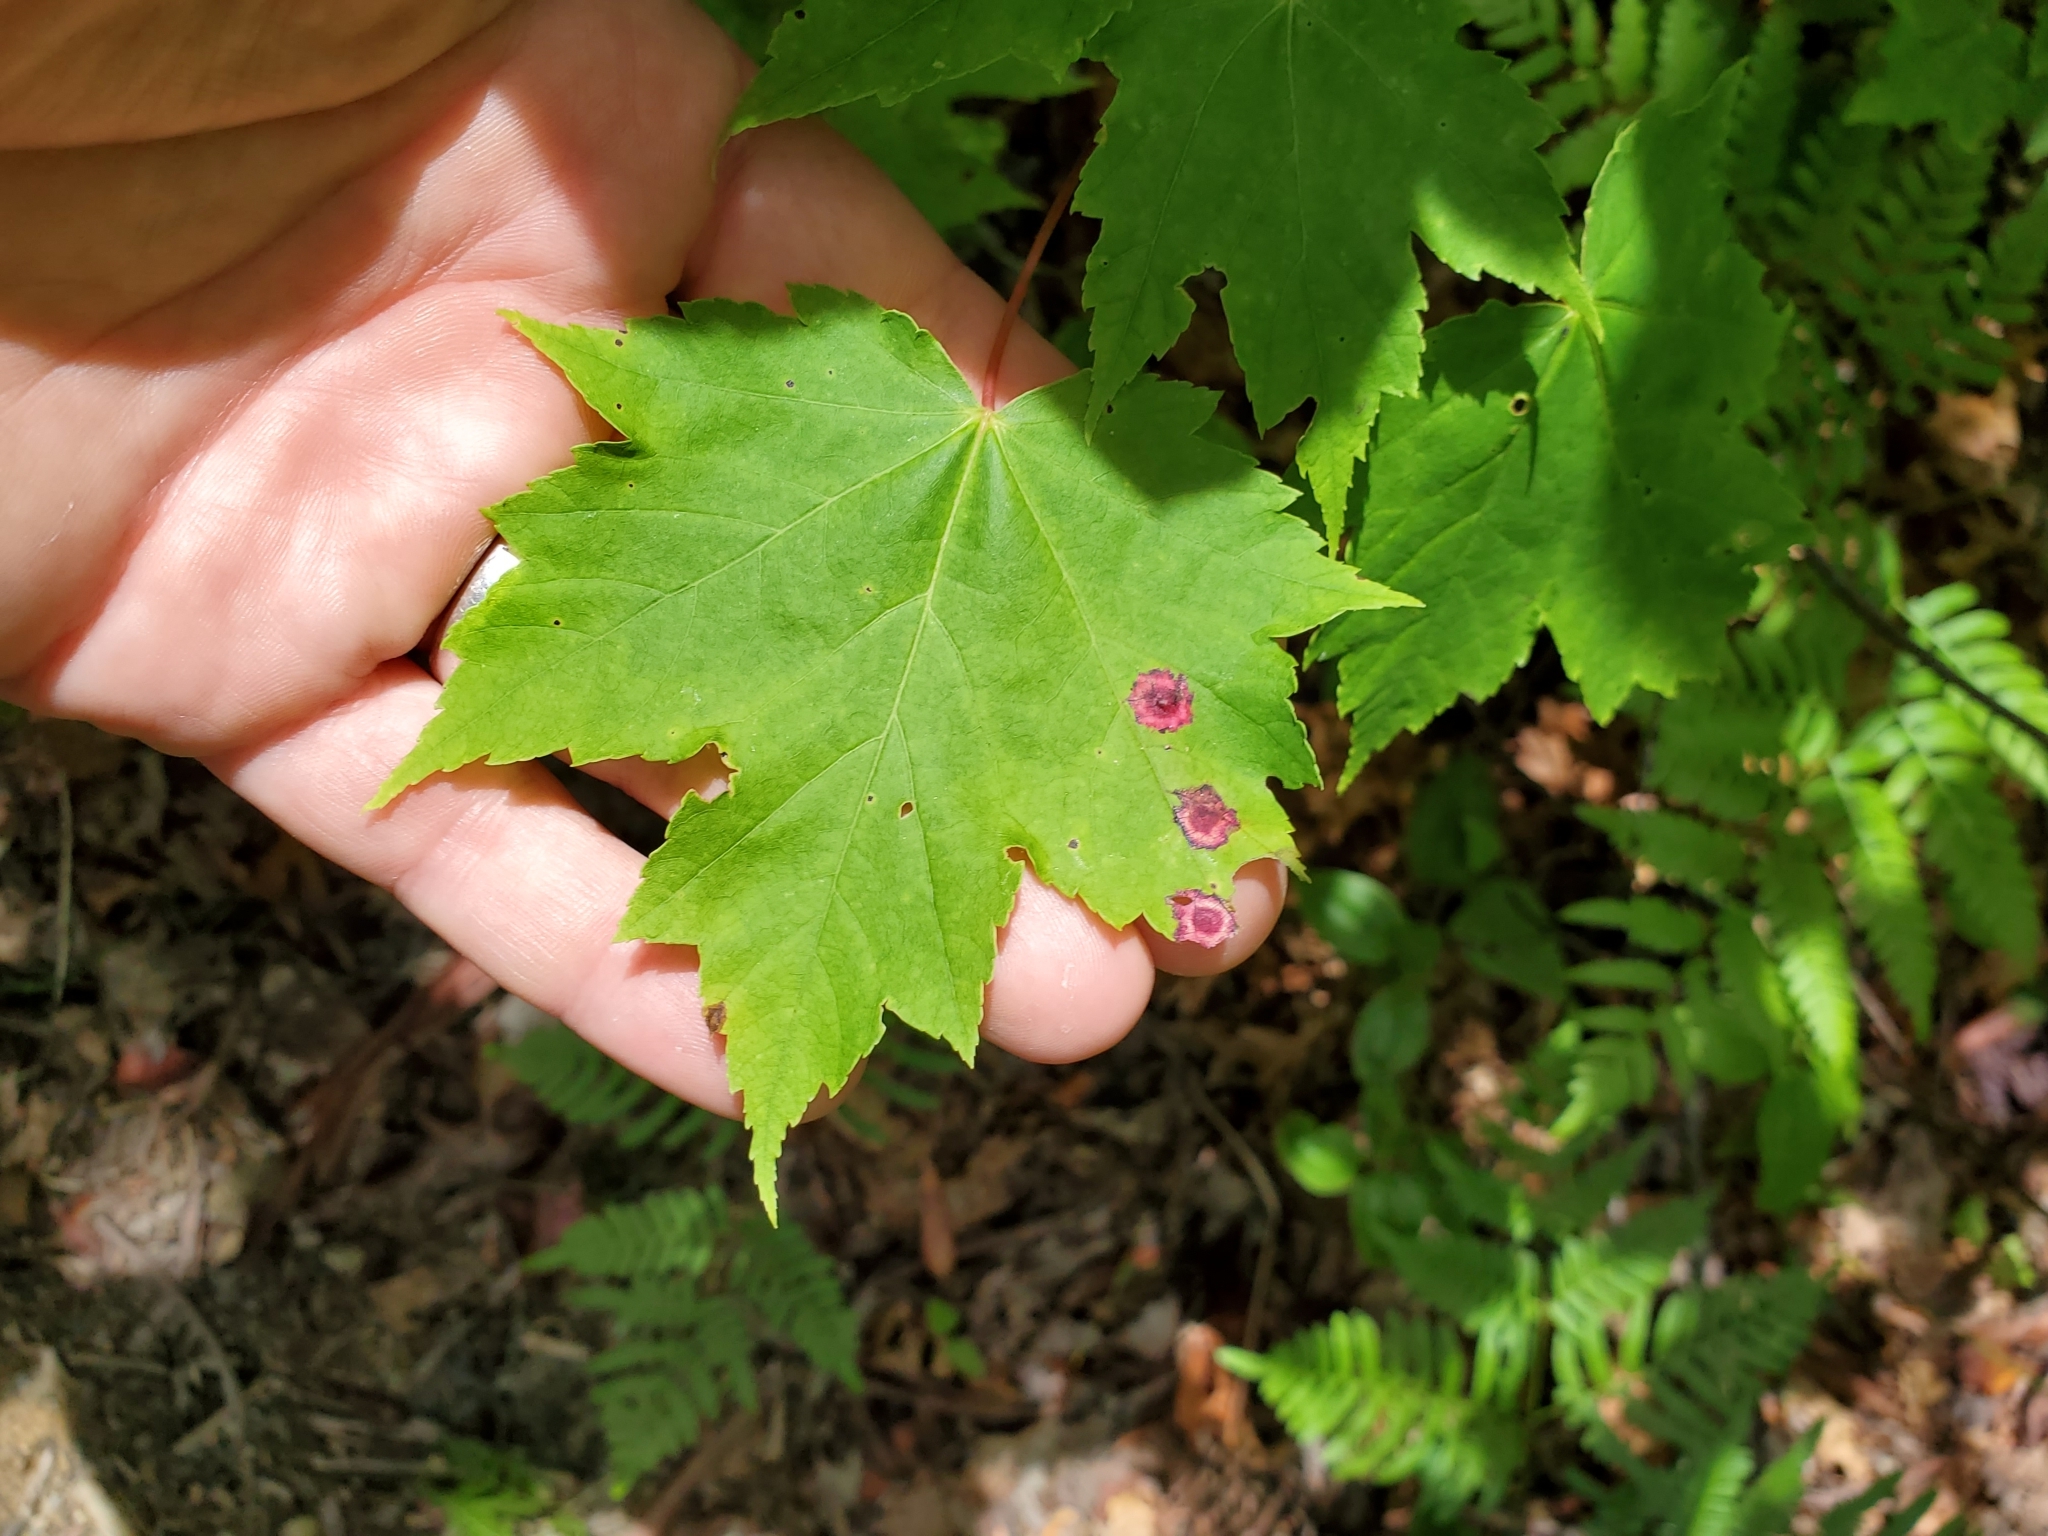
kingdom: Plantae
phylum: Tracheophyta
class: Magnoliopsida
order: Sapindales
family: Sapindaceae
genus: Acer
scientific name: Acer rubrum
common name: Red maple
